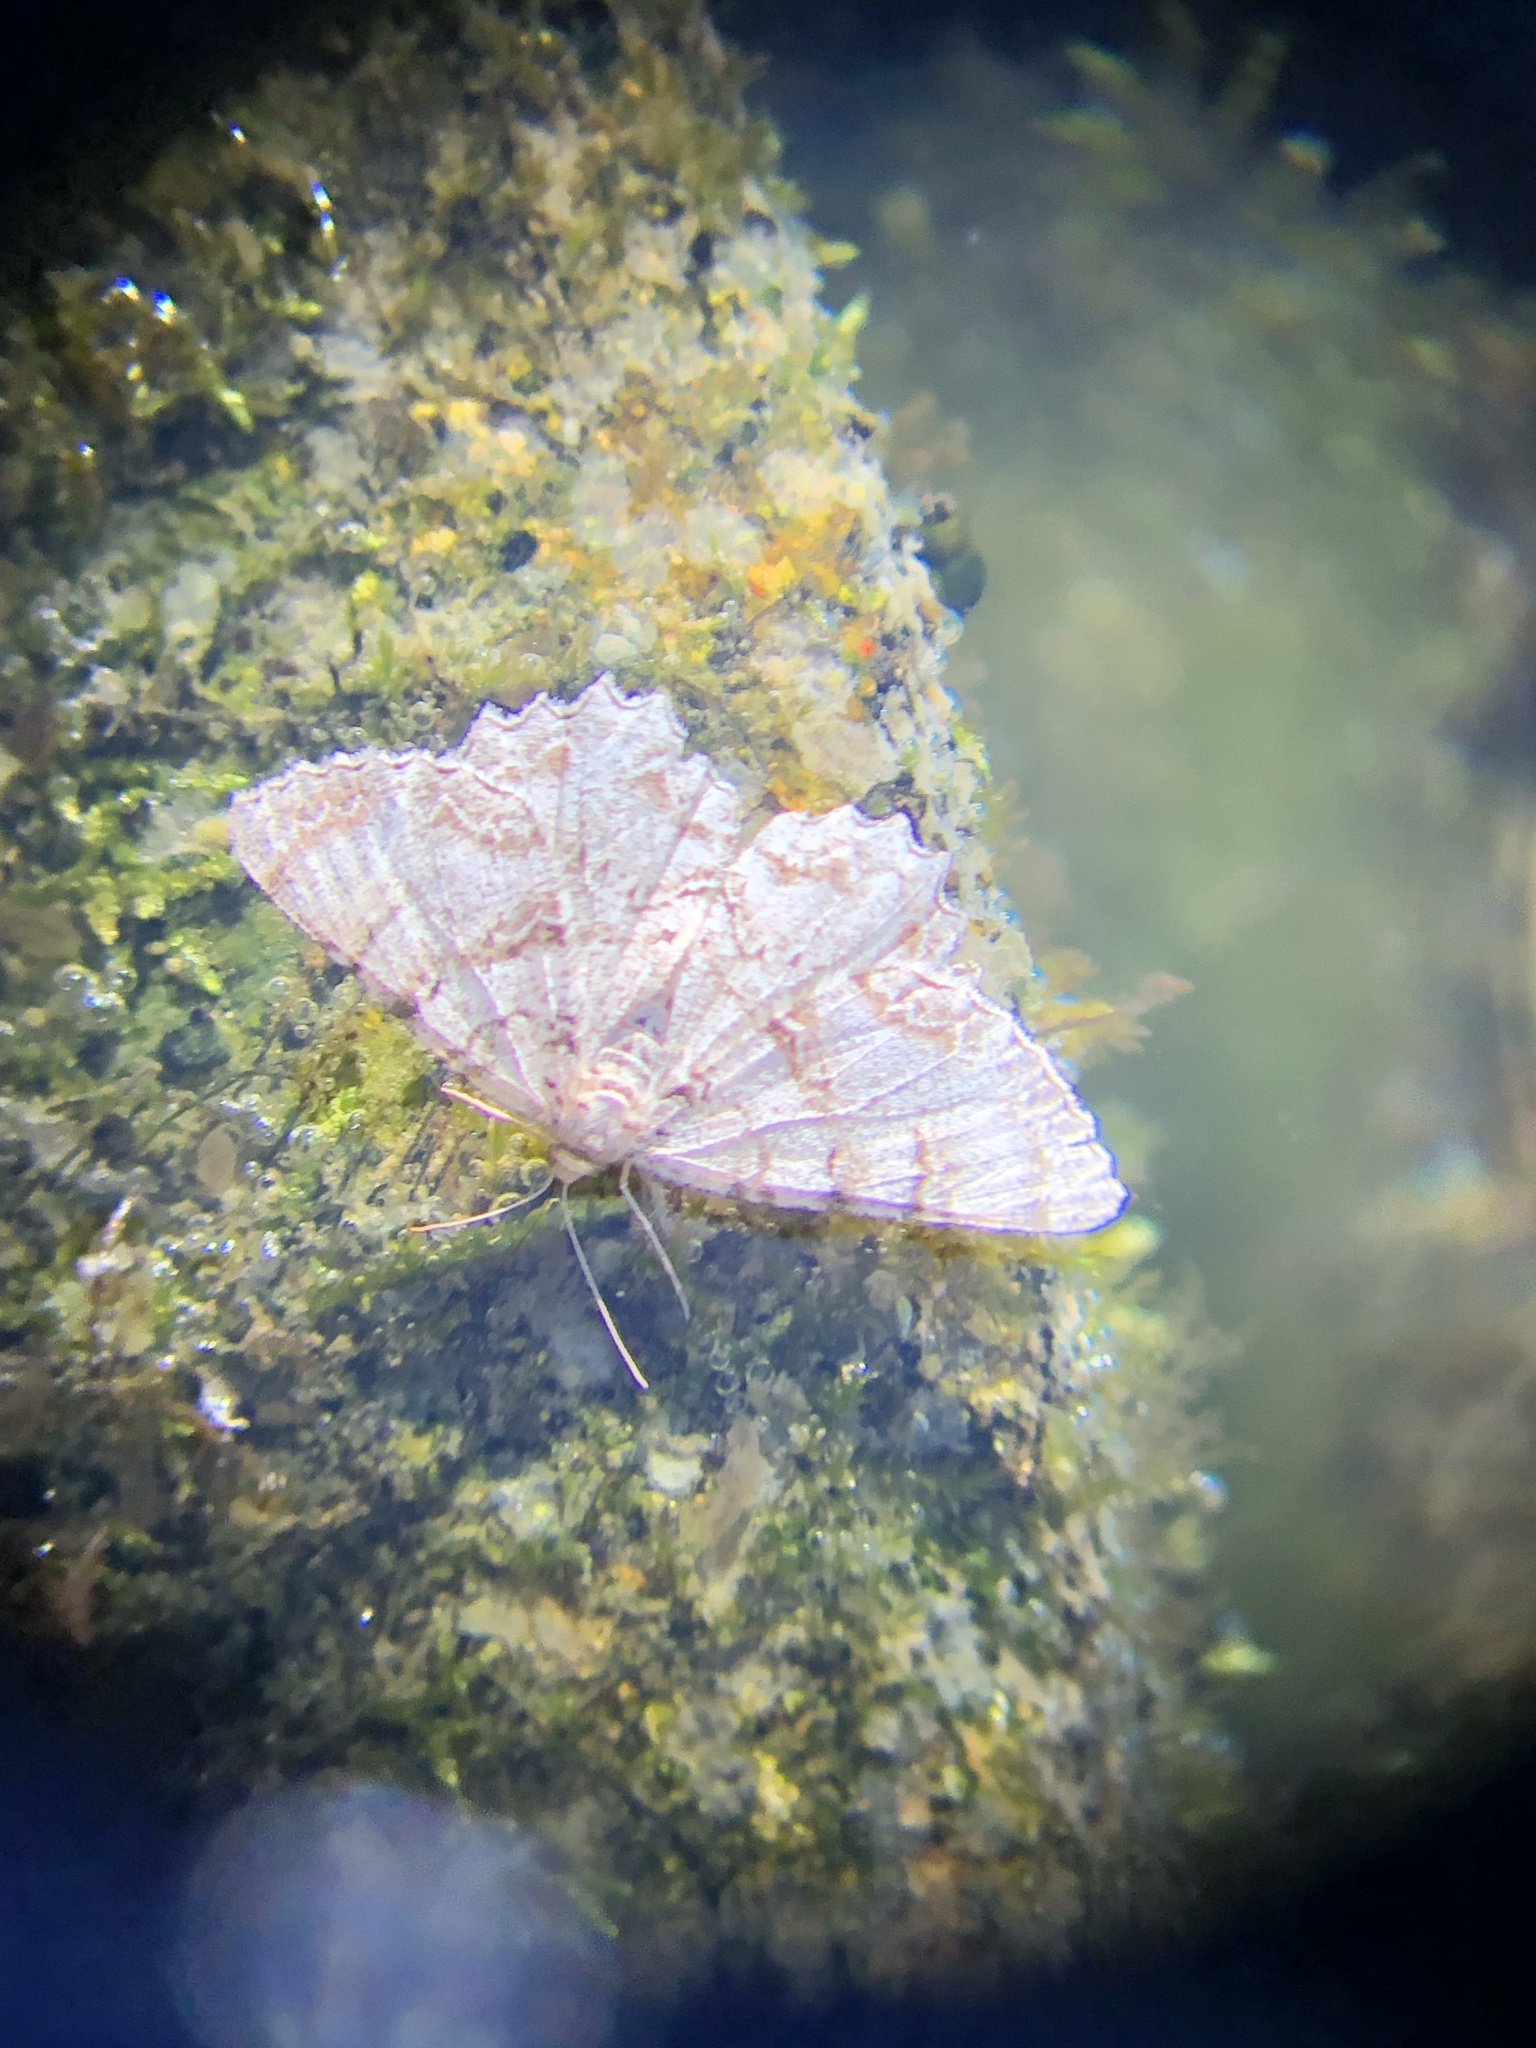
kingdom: Animalia
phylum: Arthropoda
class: Insecta
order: Lepidoptera
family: Geometridae
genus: Epimecis
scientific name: Epimecis hortaria
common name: Tulip-tree beauty
